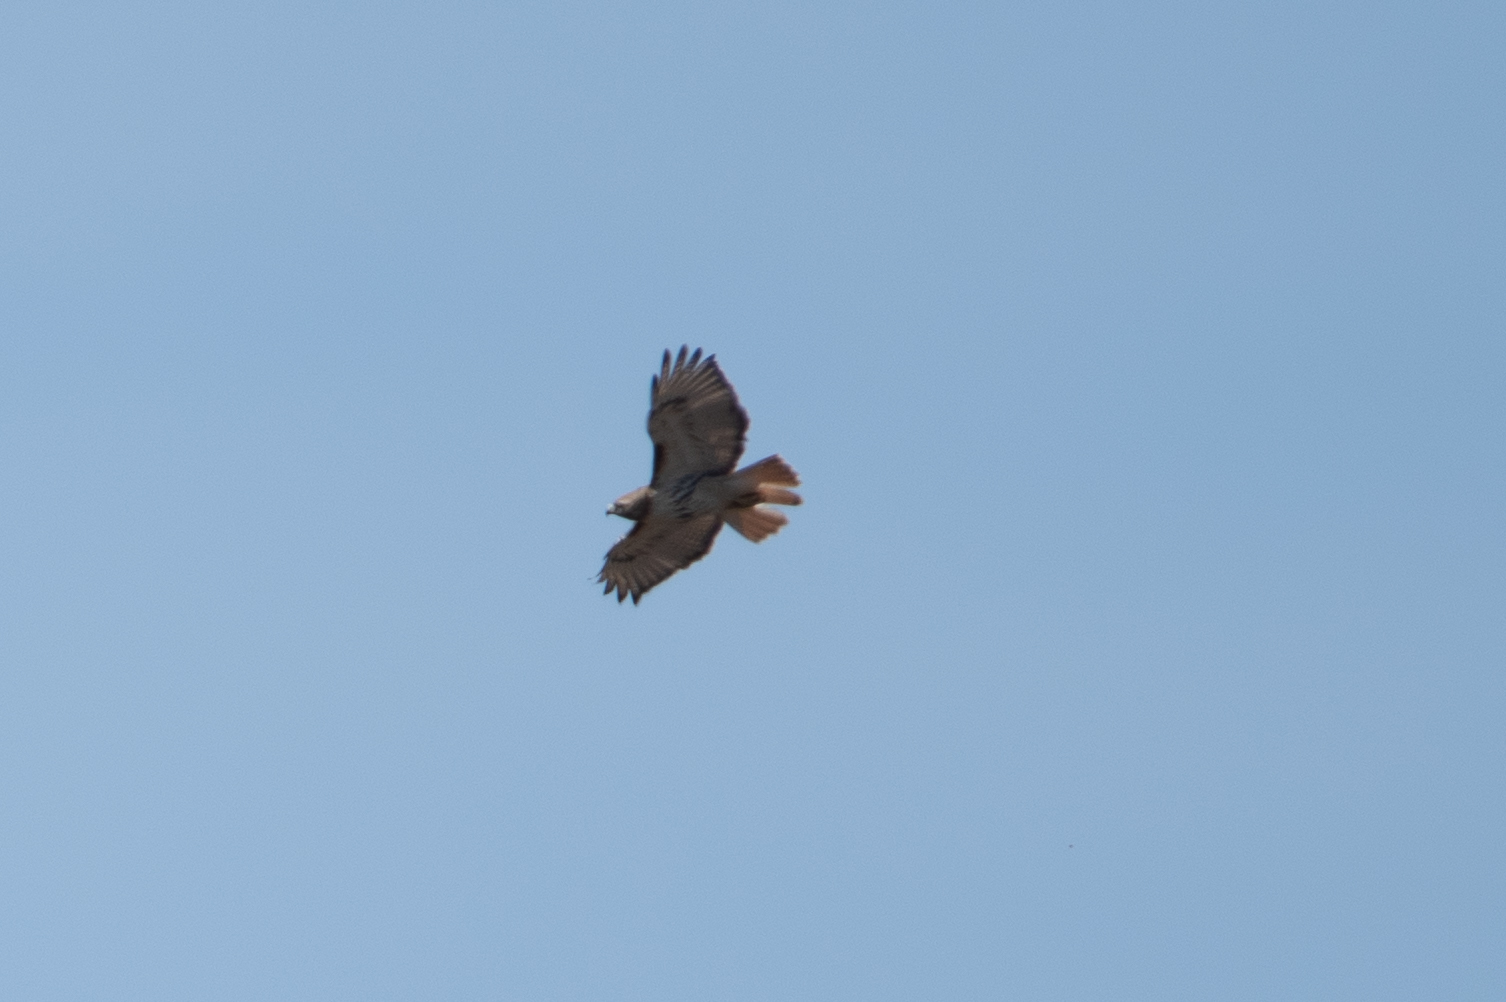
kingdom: Animalia
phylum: Chordata
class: Aves
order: Accipitriformes
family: Accipitridae
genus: Buteo
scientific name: Buteo jamaicensis
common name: Red-tailed hawk
